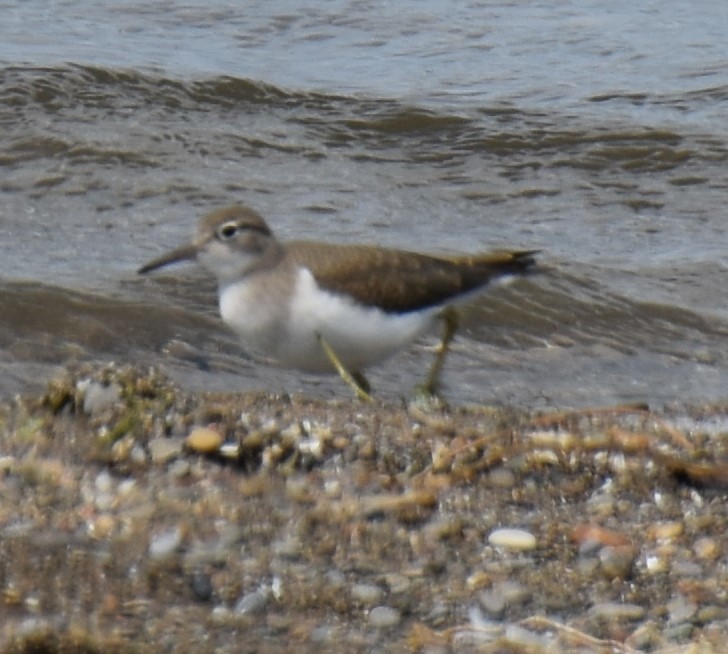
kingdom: Animalia
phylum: Chordata
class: Aves
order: Charadriiformes
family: Scolopacidae
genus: Tringa
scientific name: Tringa solitaria
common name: Solitary sandpiper
